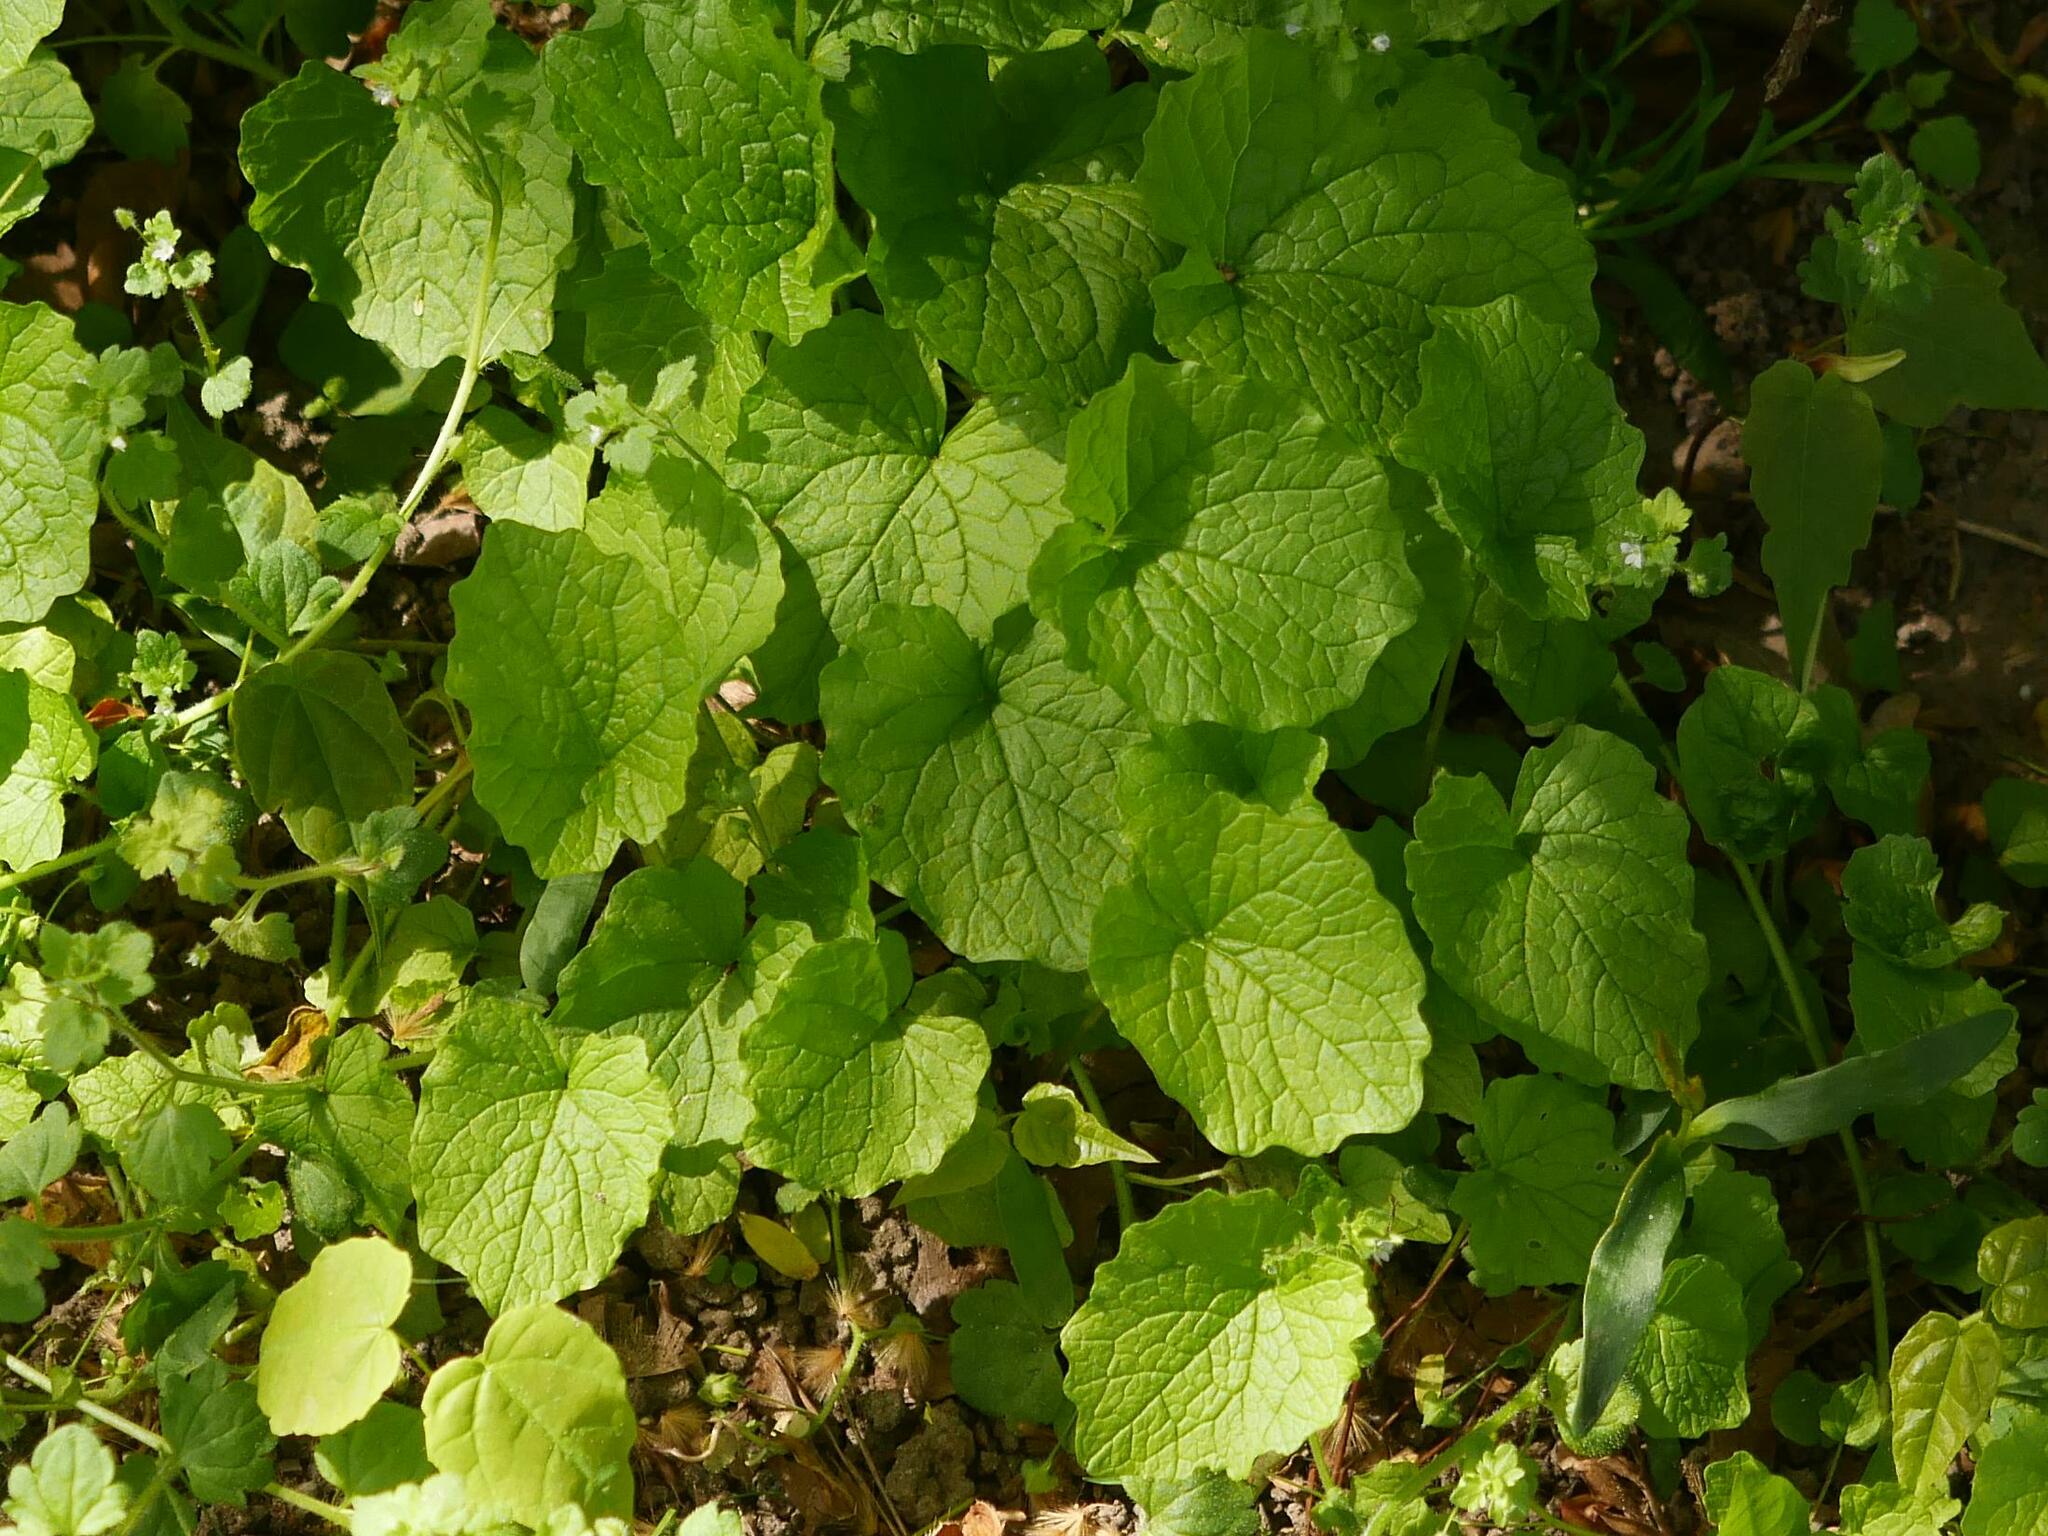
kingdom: Plantae
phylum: Tracheophyta
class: Magnoliopsida
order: Brassicales
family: Brassicaceae
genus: Alliaria
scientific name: Alliaria petiolata
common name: Garlic mustard
